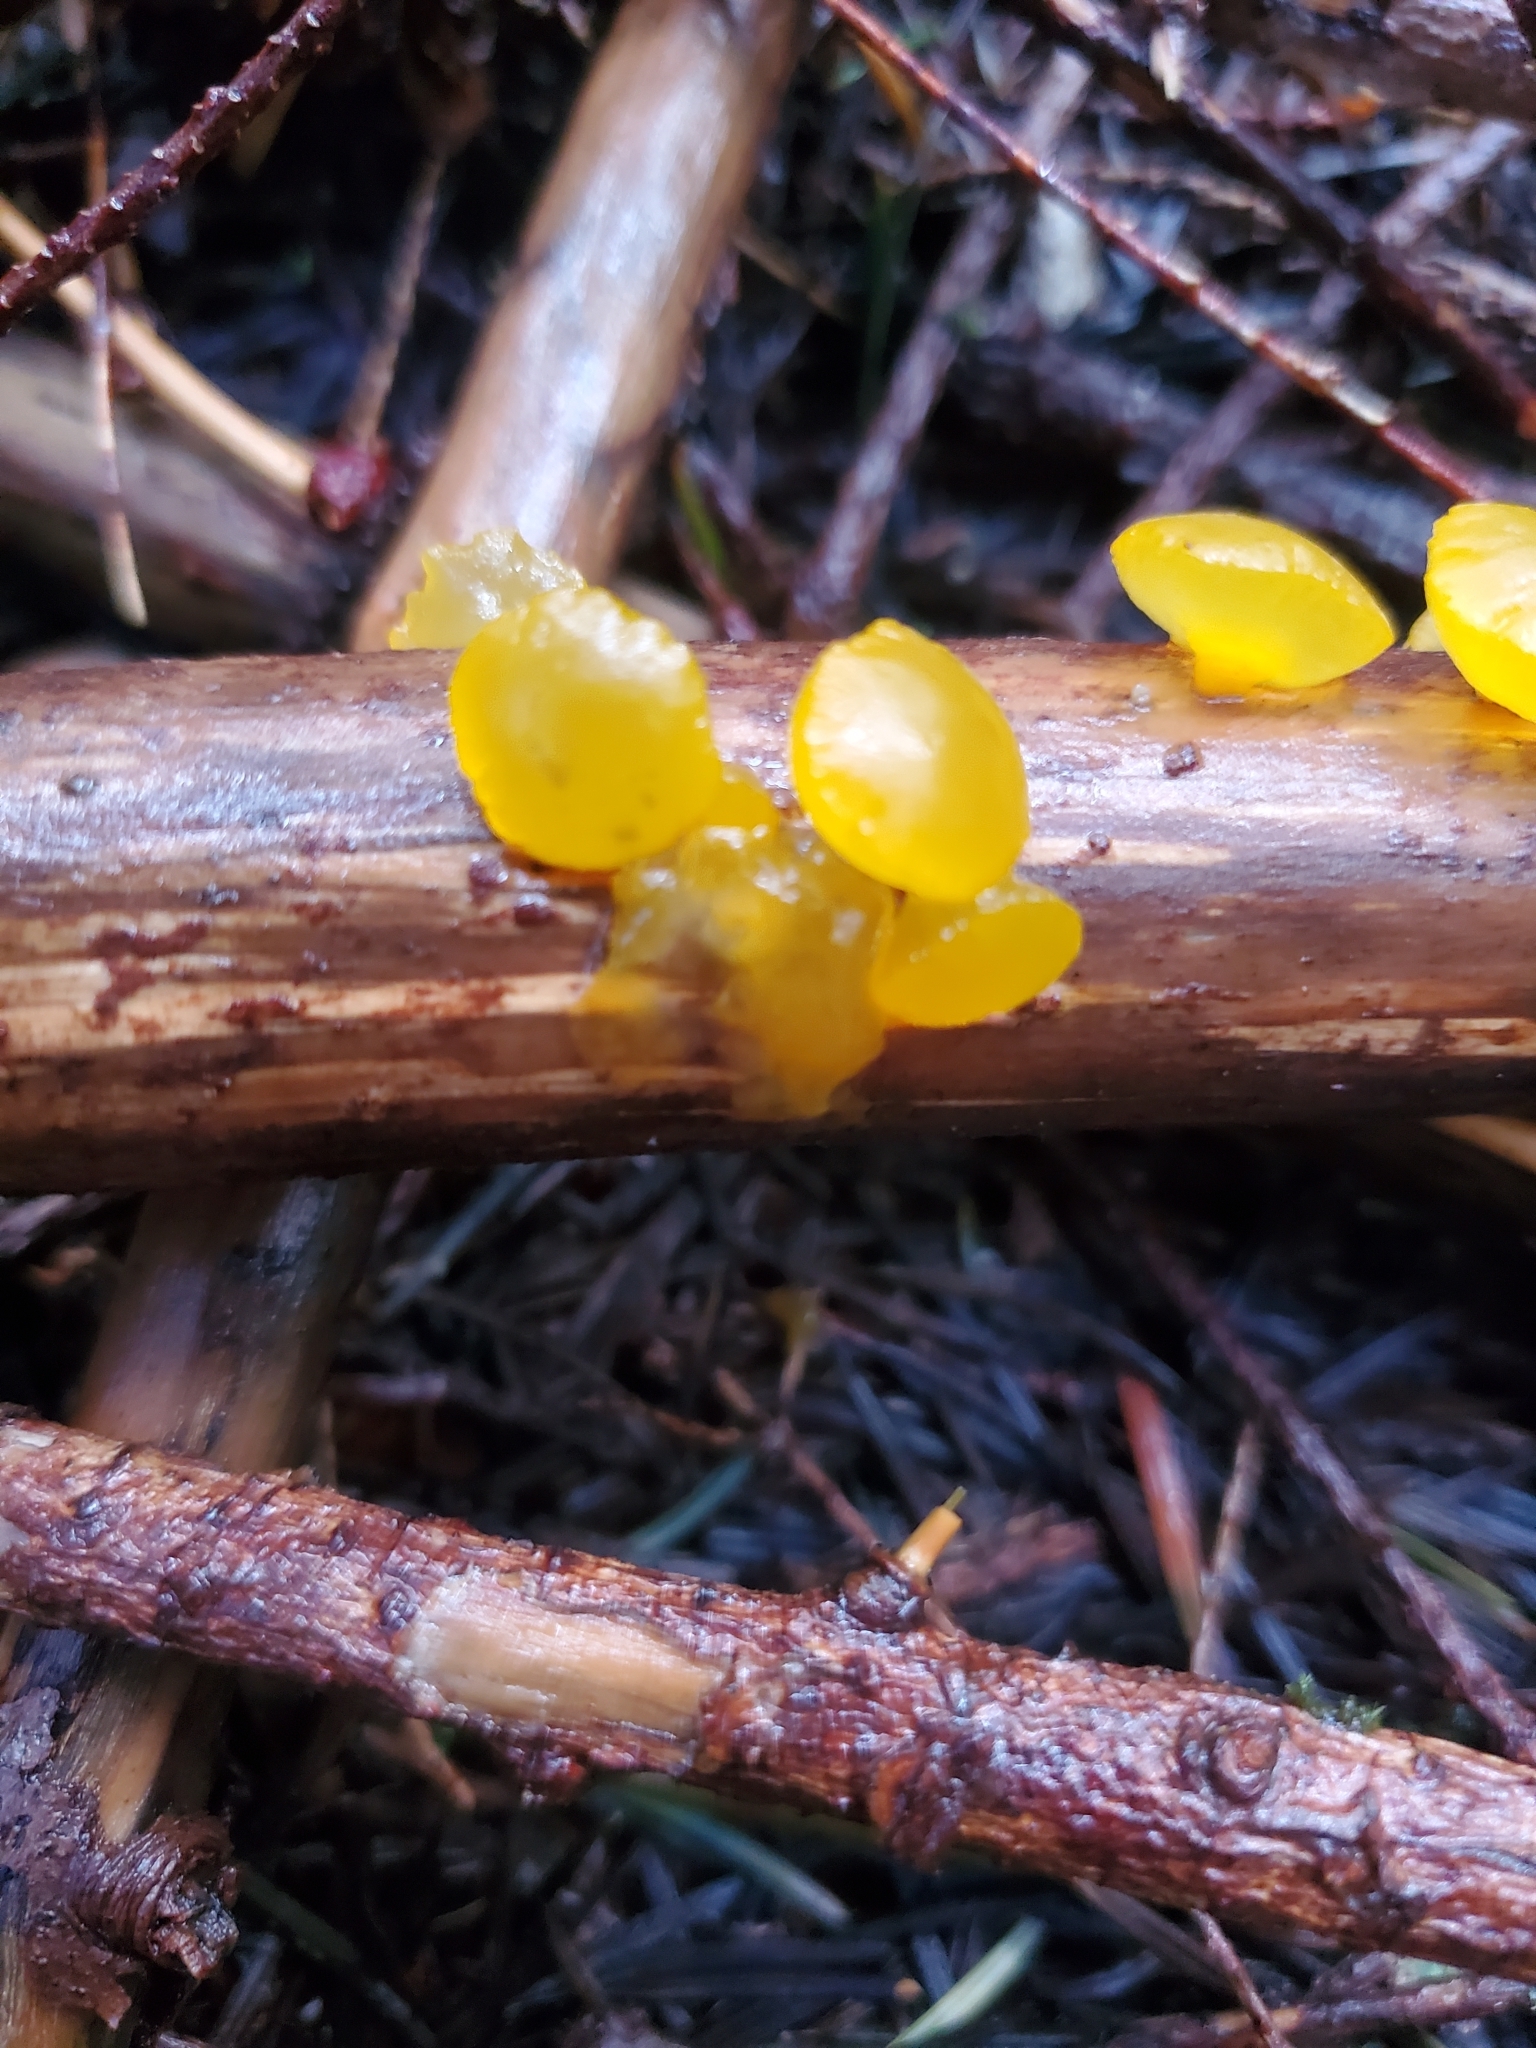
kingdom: Fungi
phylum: Basidiomycota
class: Dacrymycetes
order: Dacrymycetales
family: Dacrymycetaceae
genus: Guepiniopsis
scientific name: Guepiniopsis alpina
